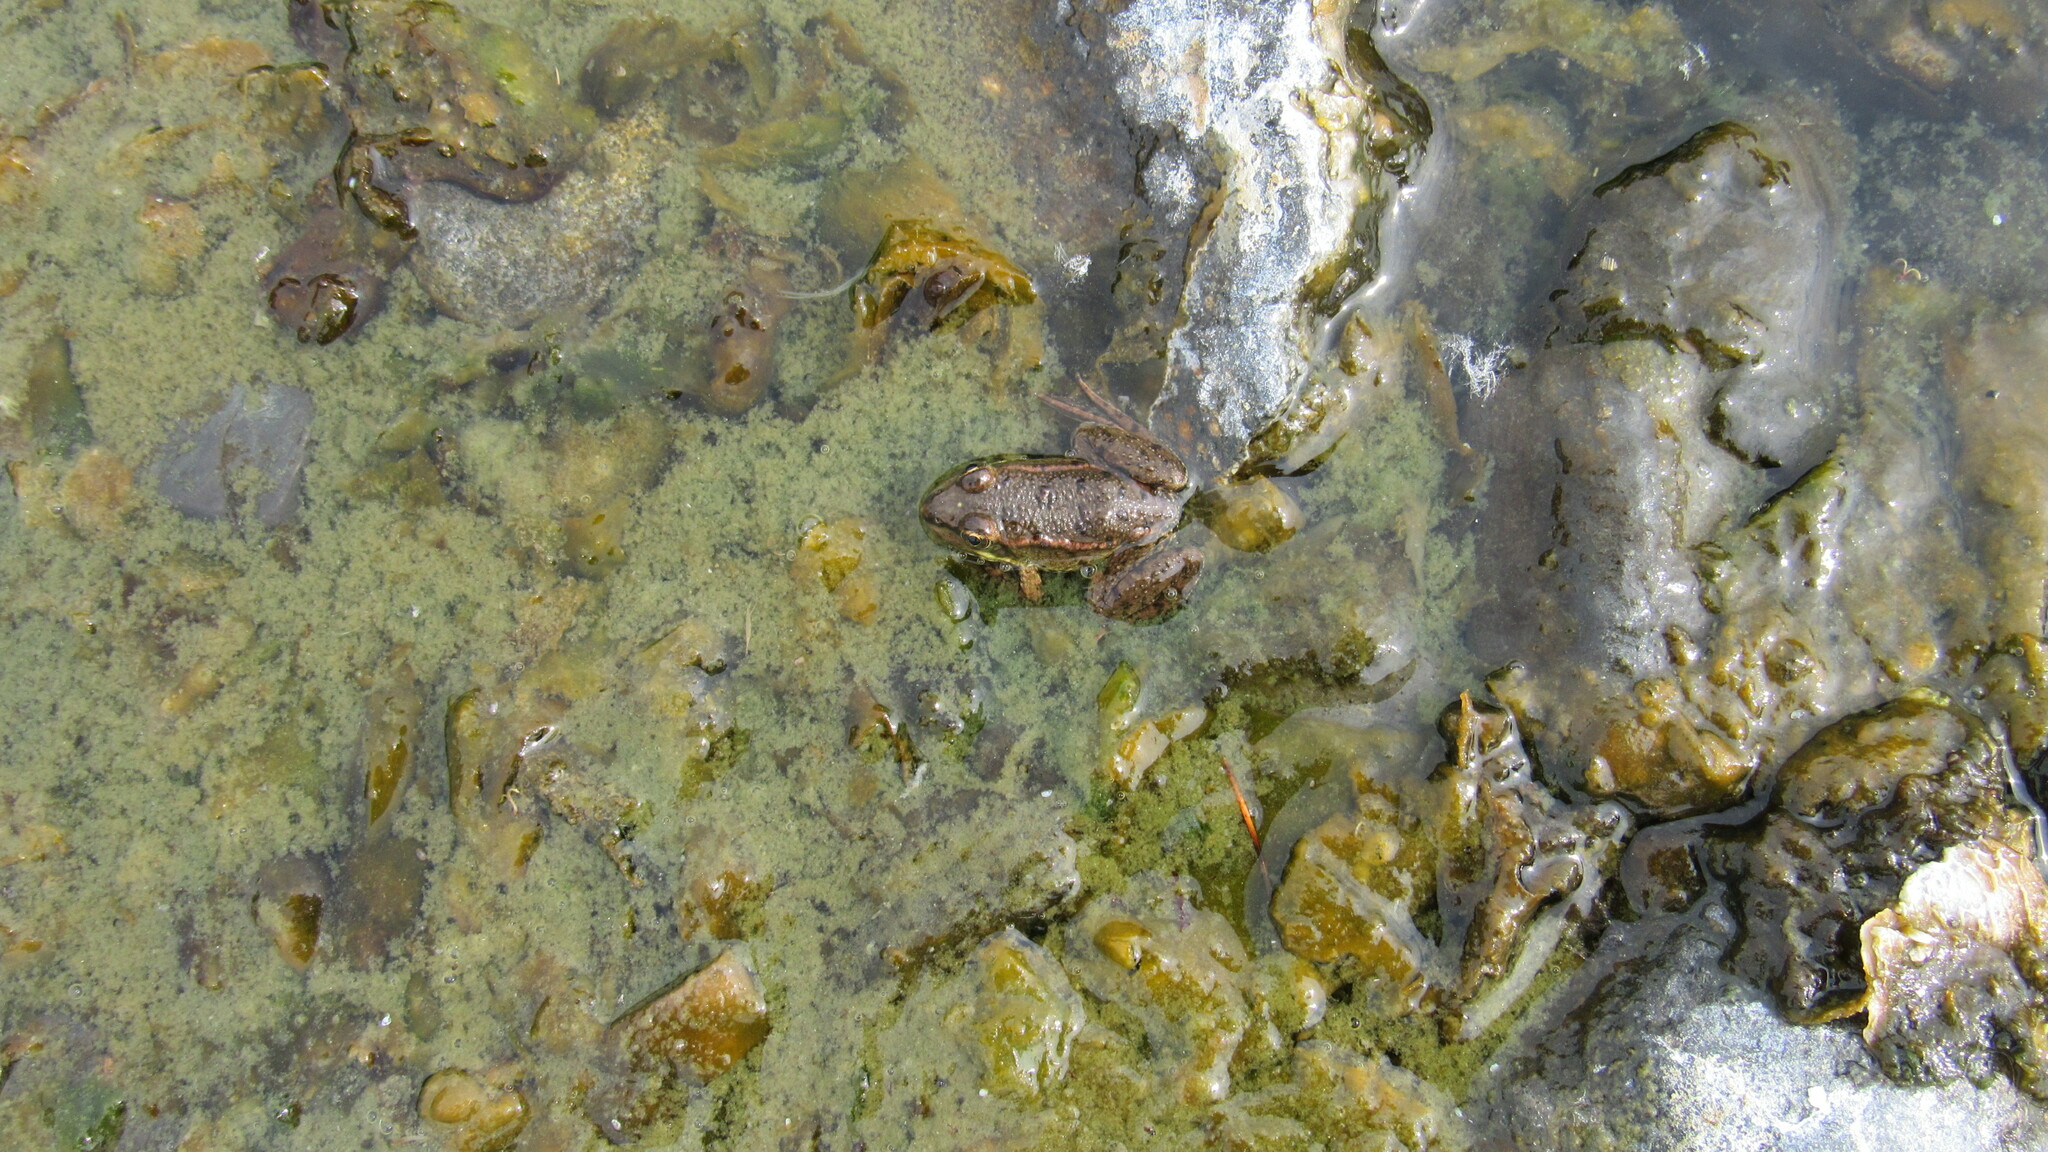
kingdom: Animalia
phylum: Chordata
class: Amphibia
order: Anura
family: Ranidae
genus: Pelophylax
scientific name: Pelophylax ridibundus
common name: Marsh frog
